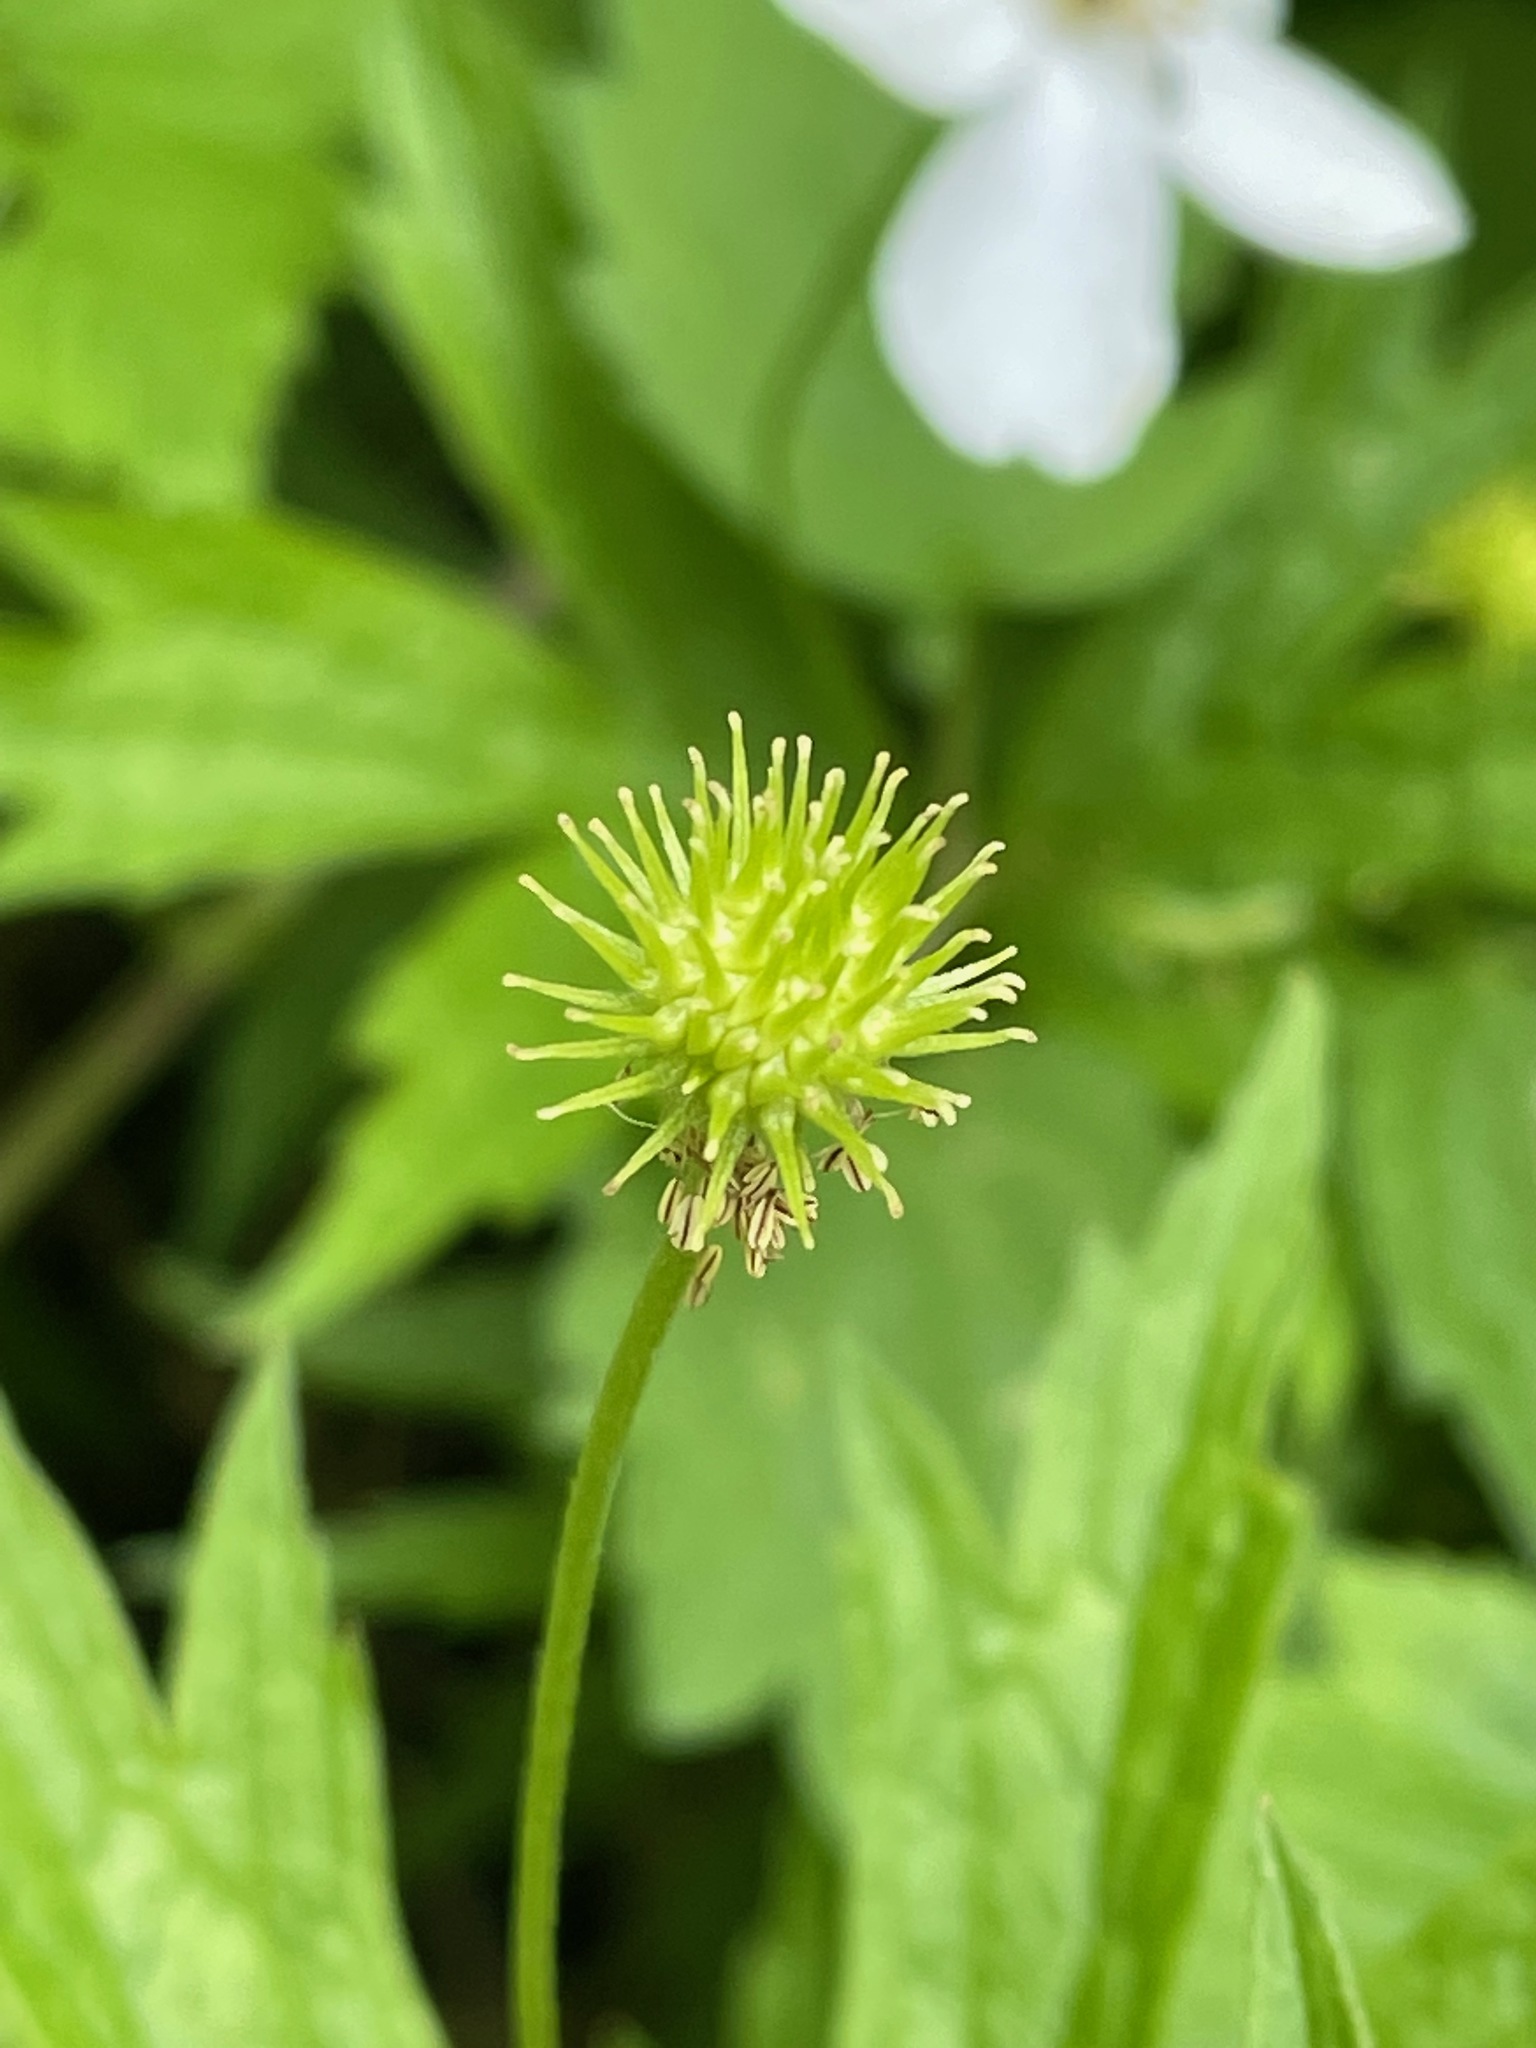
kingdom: Plantae
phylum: Tracheophyta
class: Magnoliopsida
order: Ranunculales
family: Ranunculaceae
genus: Anemonastrum
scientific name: Anemonastrum canadense
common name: Canada anemone
